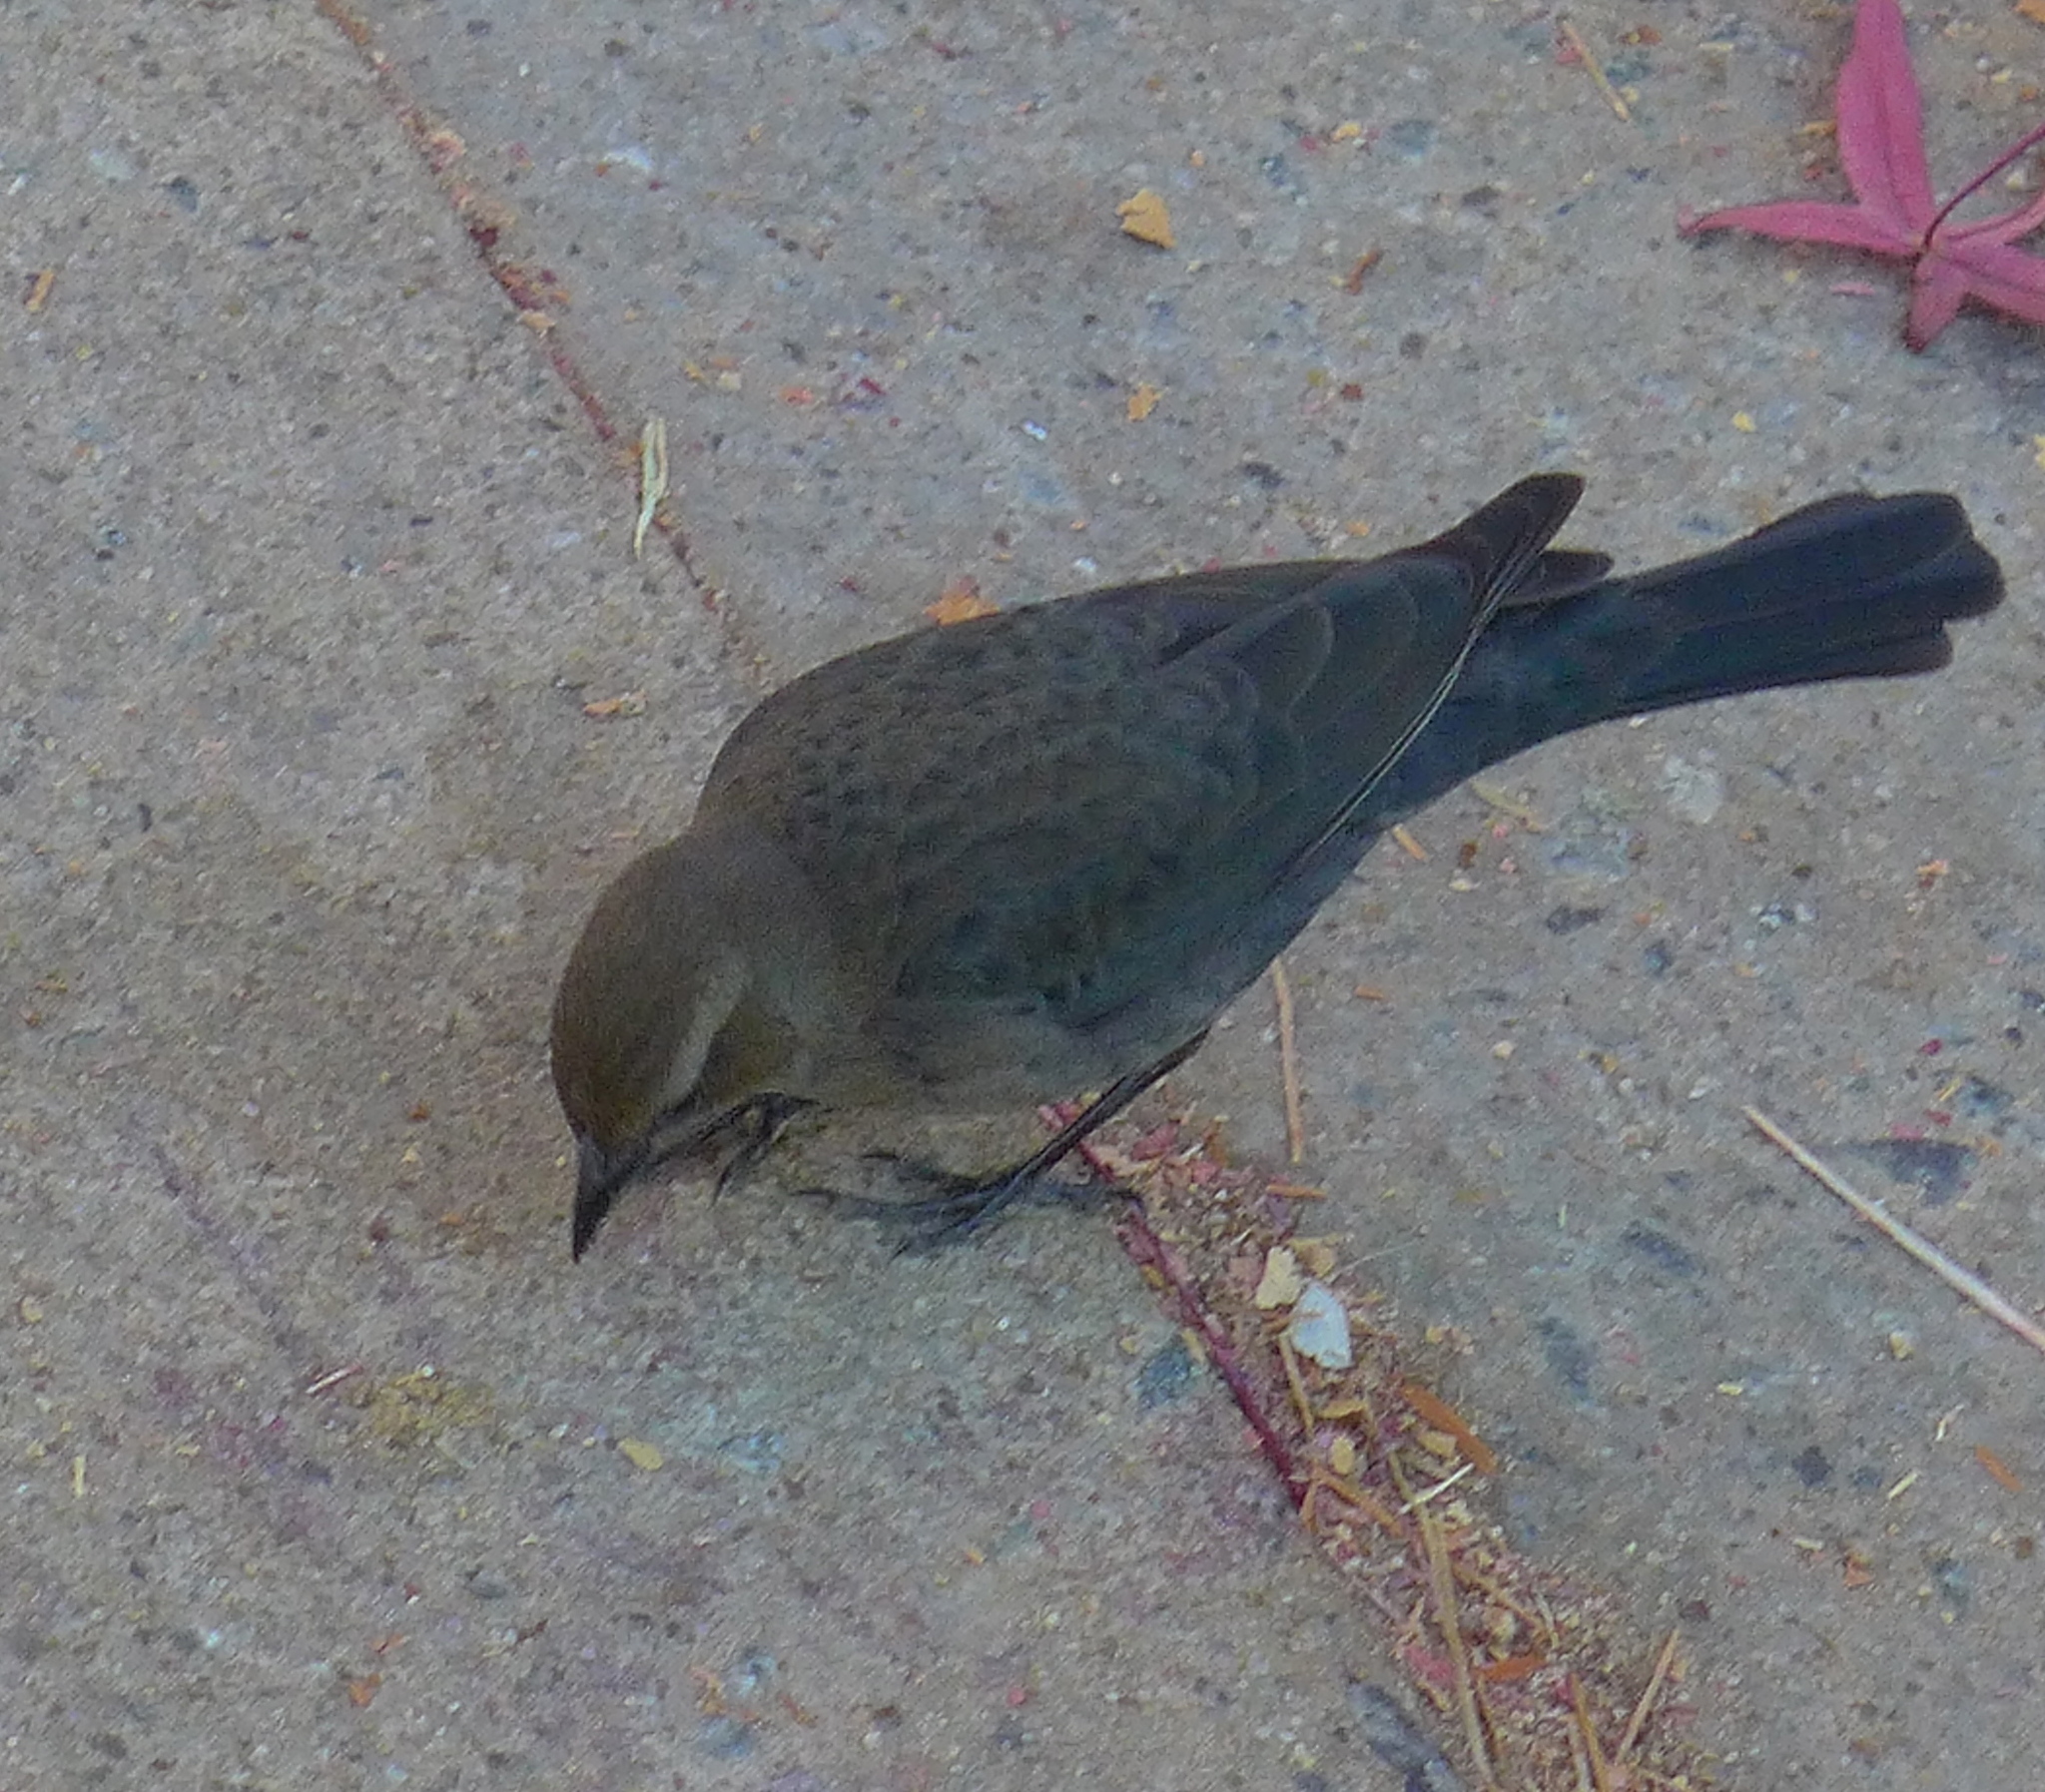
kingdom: Animalia
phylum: Chordata
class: Aves
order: Passeriformes
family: Icteridae
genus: Euphagus
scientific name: Euphagus cyanocephalus
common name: Brewer's blackbird
